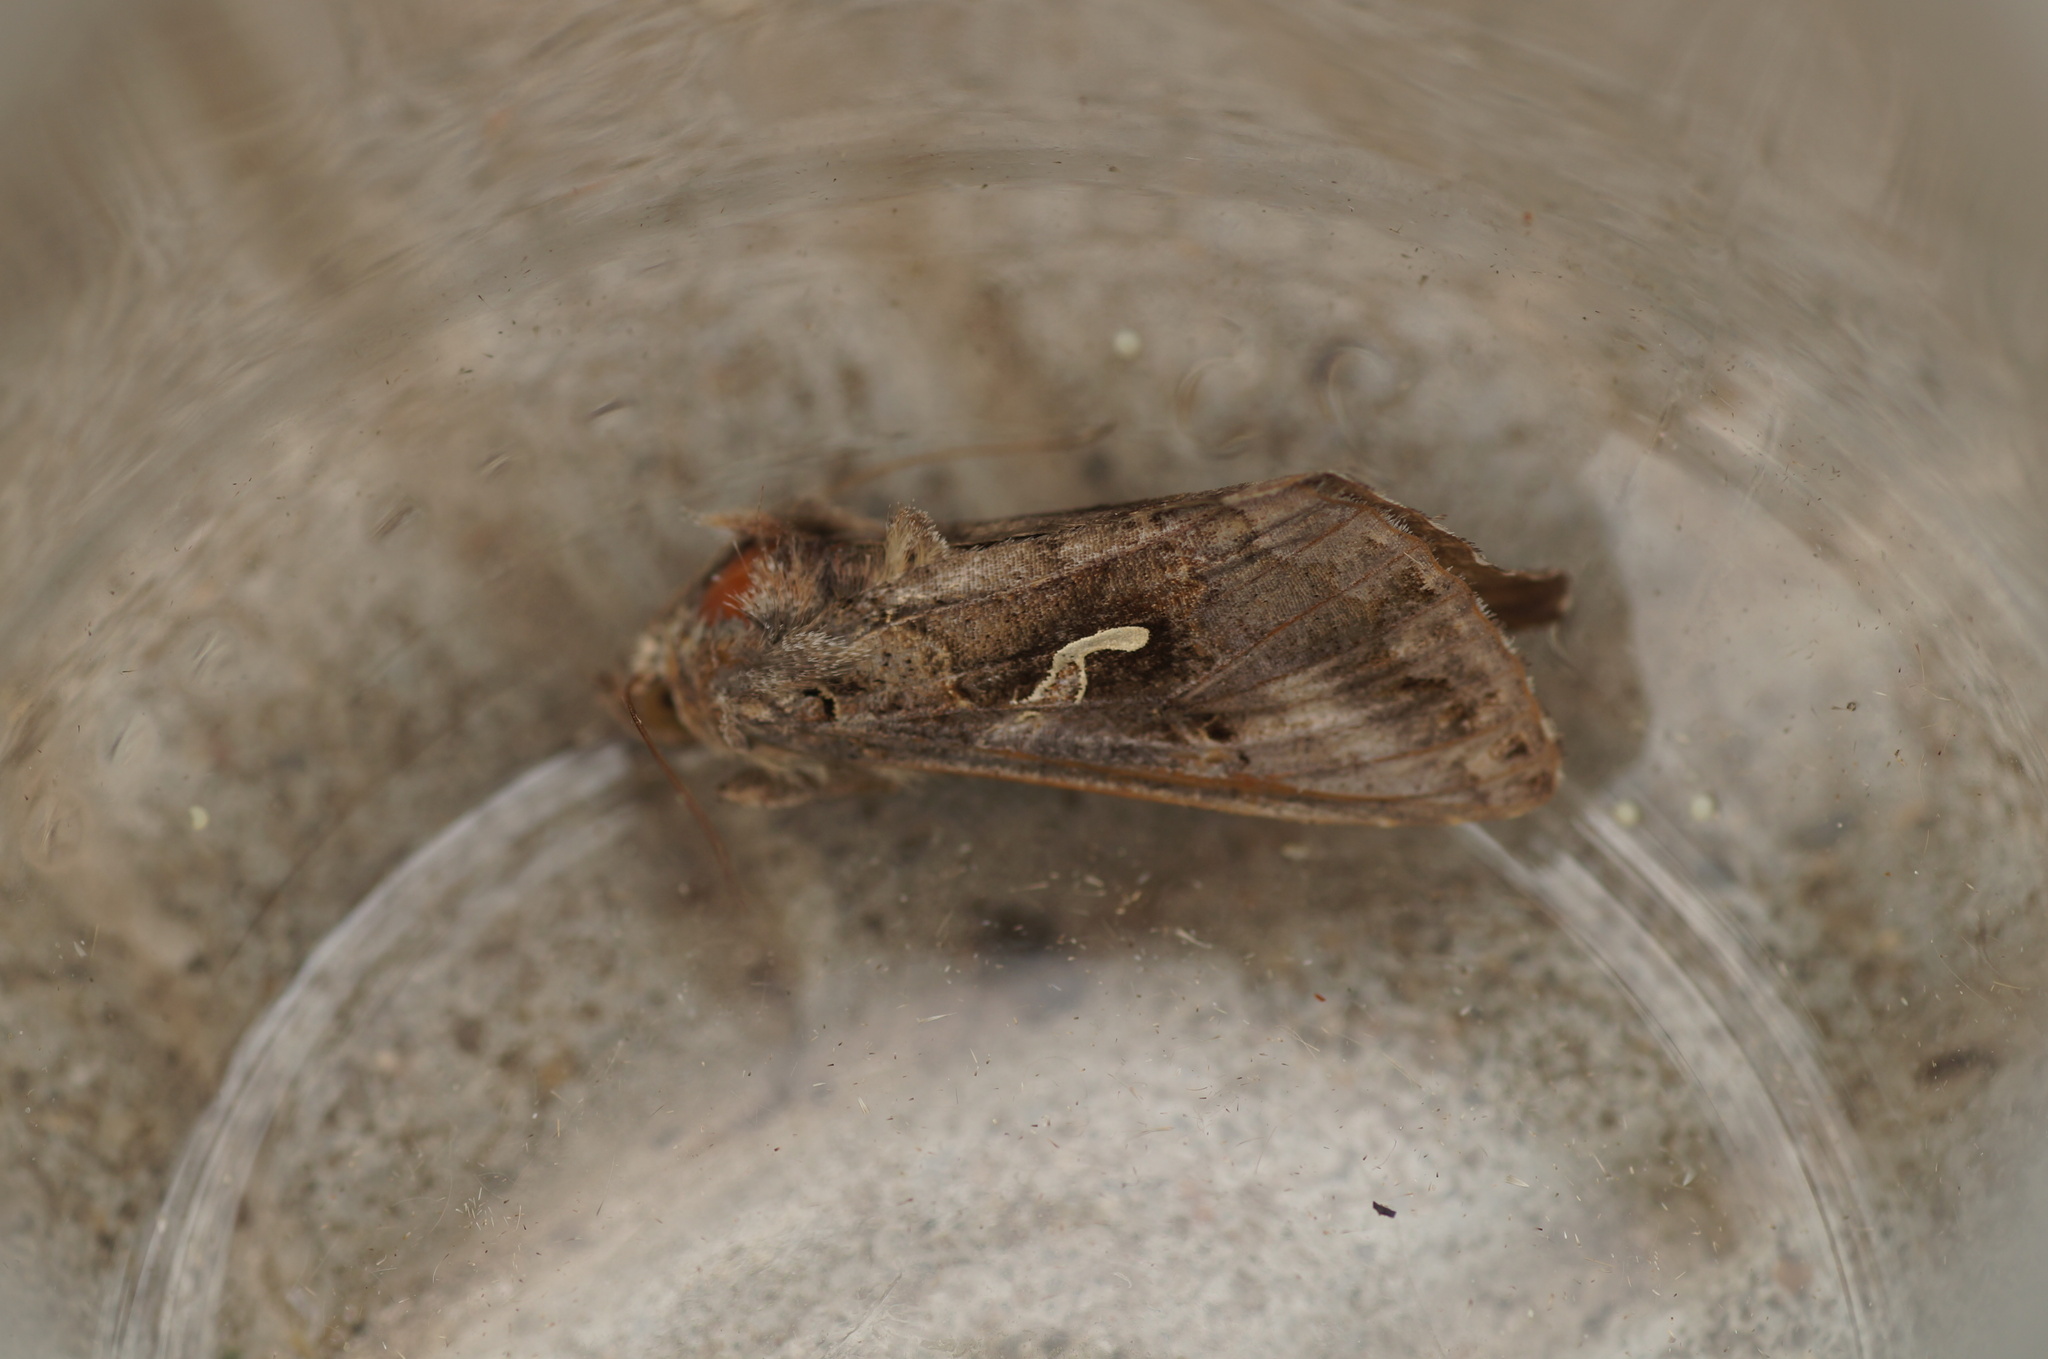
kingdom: Animalia
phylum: Arthropoda
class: Insecta
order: Lepidoptera
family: Noctuidae
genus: Autographa
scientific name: Autographa gamma
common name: Silver y
